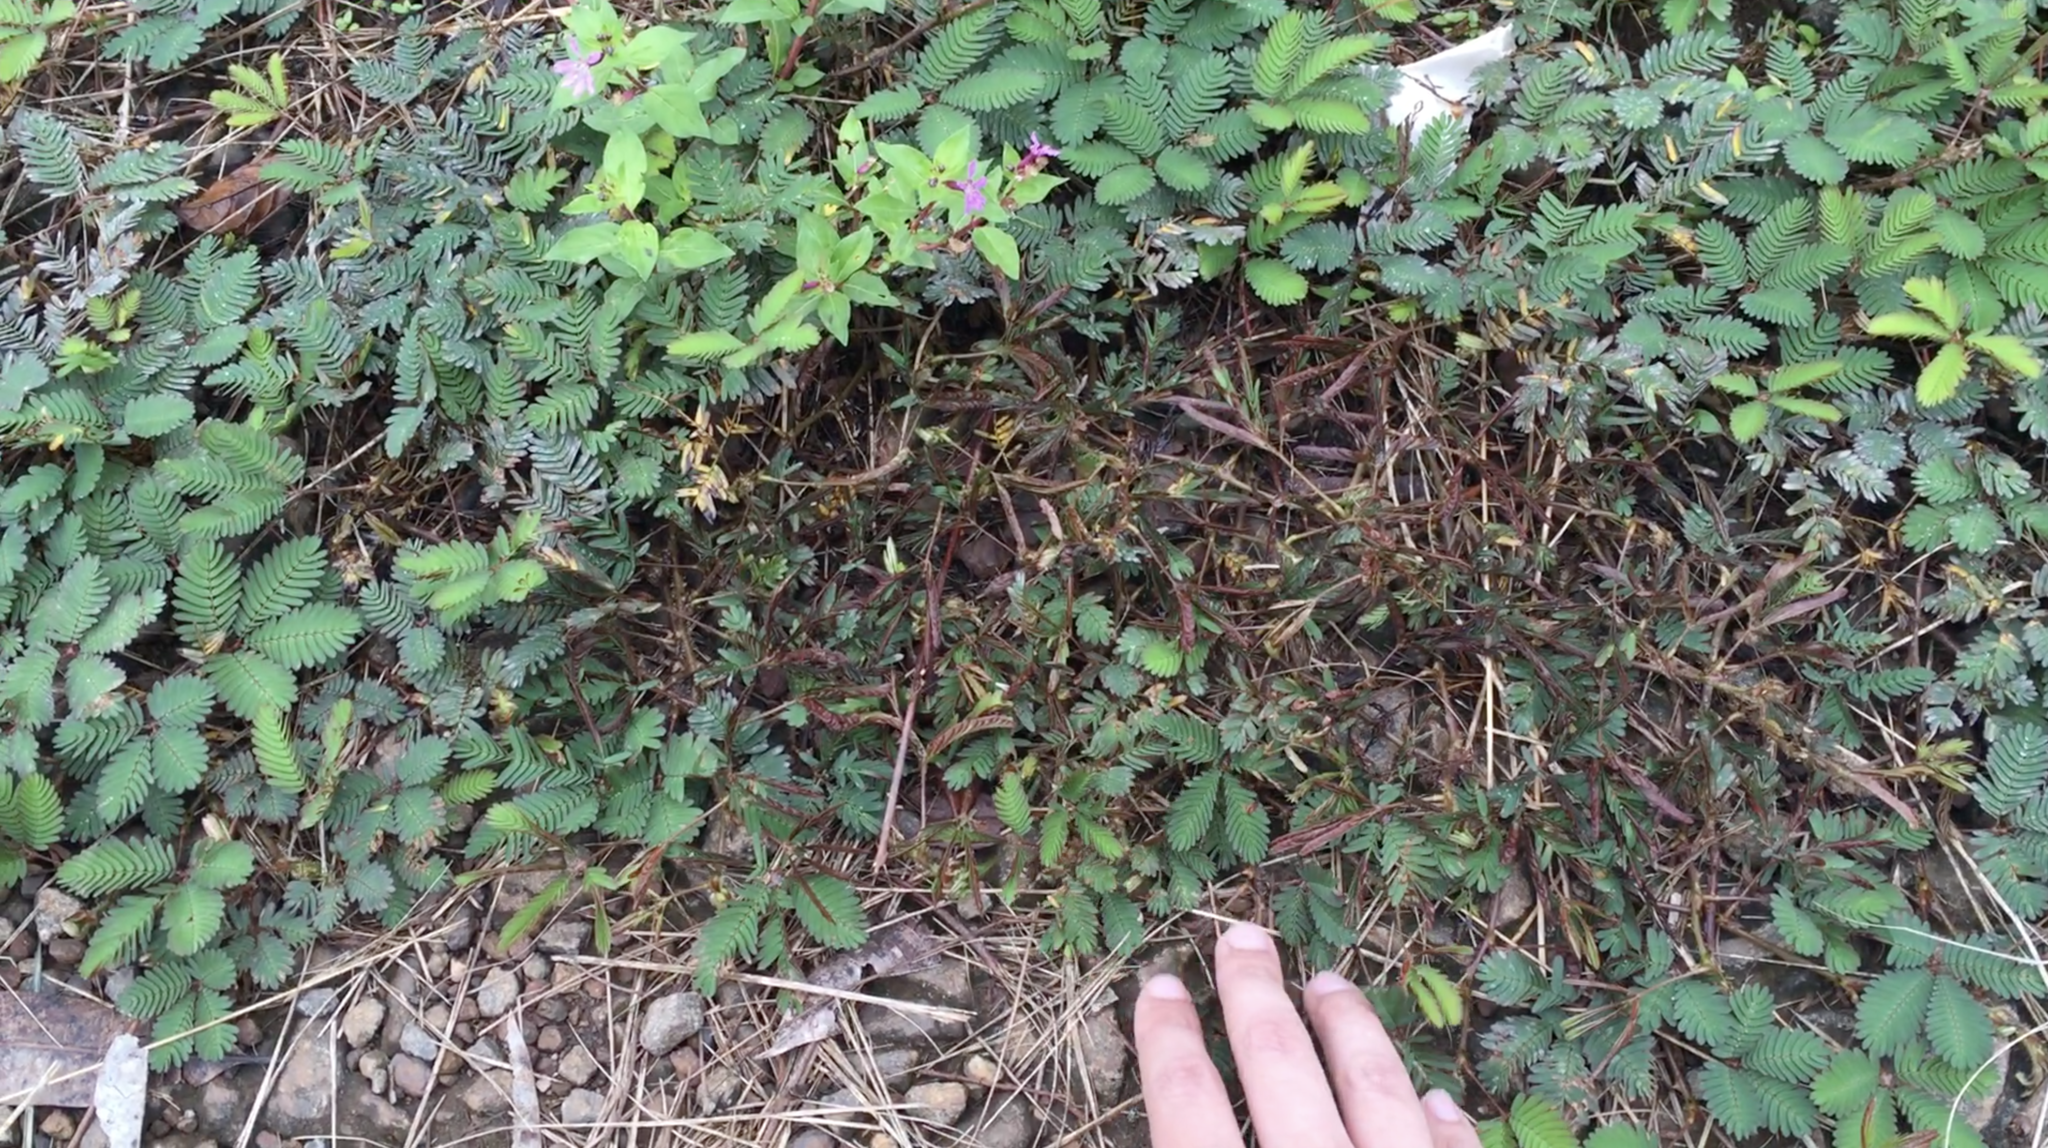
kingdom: Plantae
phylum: Tracheophyta
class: Magnoliopsida
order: Fabales
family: Fabaceae
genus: Mimosa
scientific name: Mimosa pudica
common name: Sensitive plant
